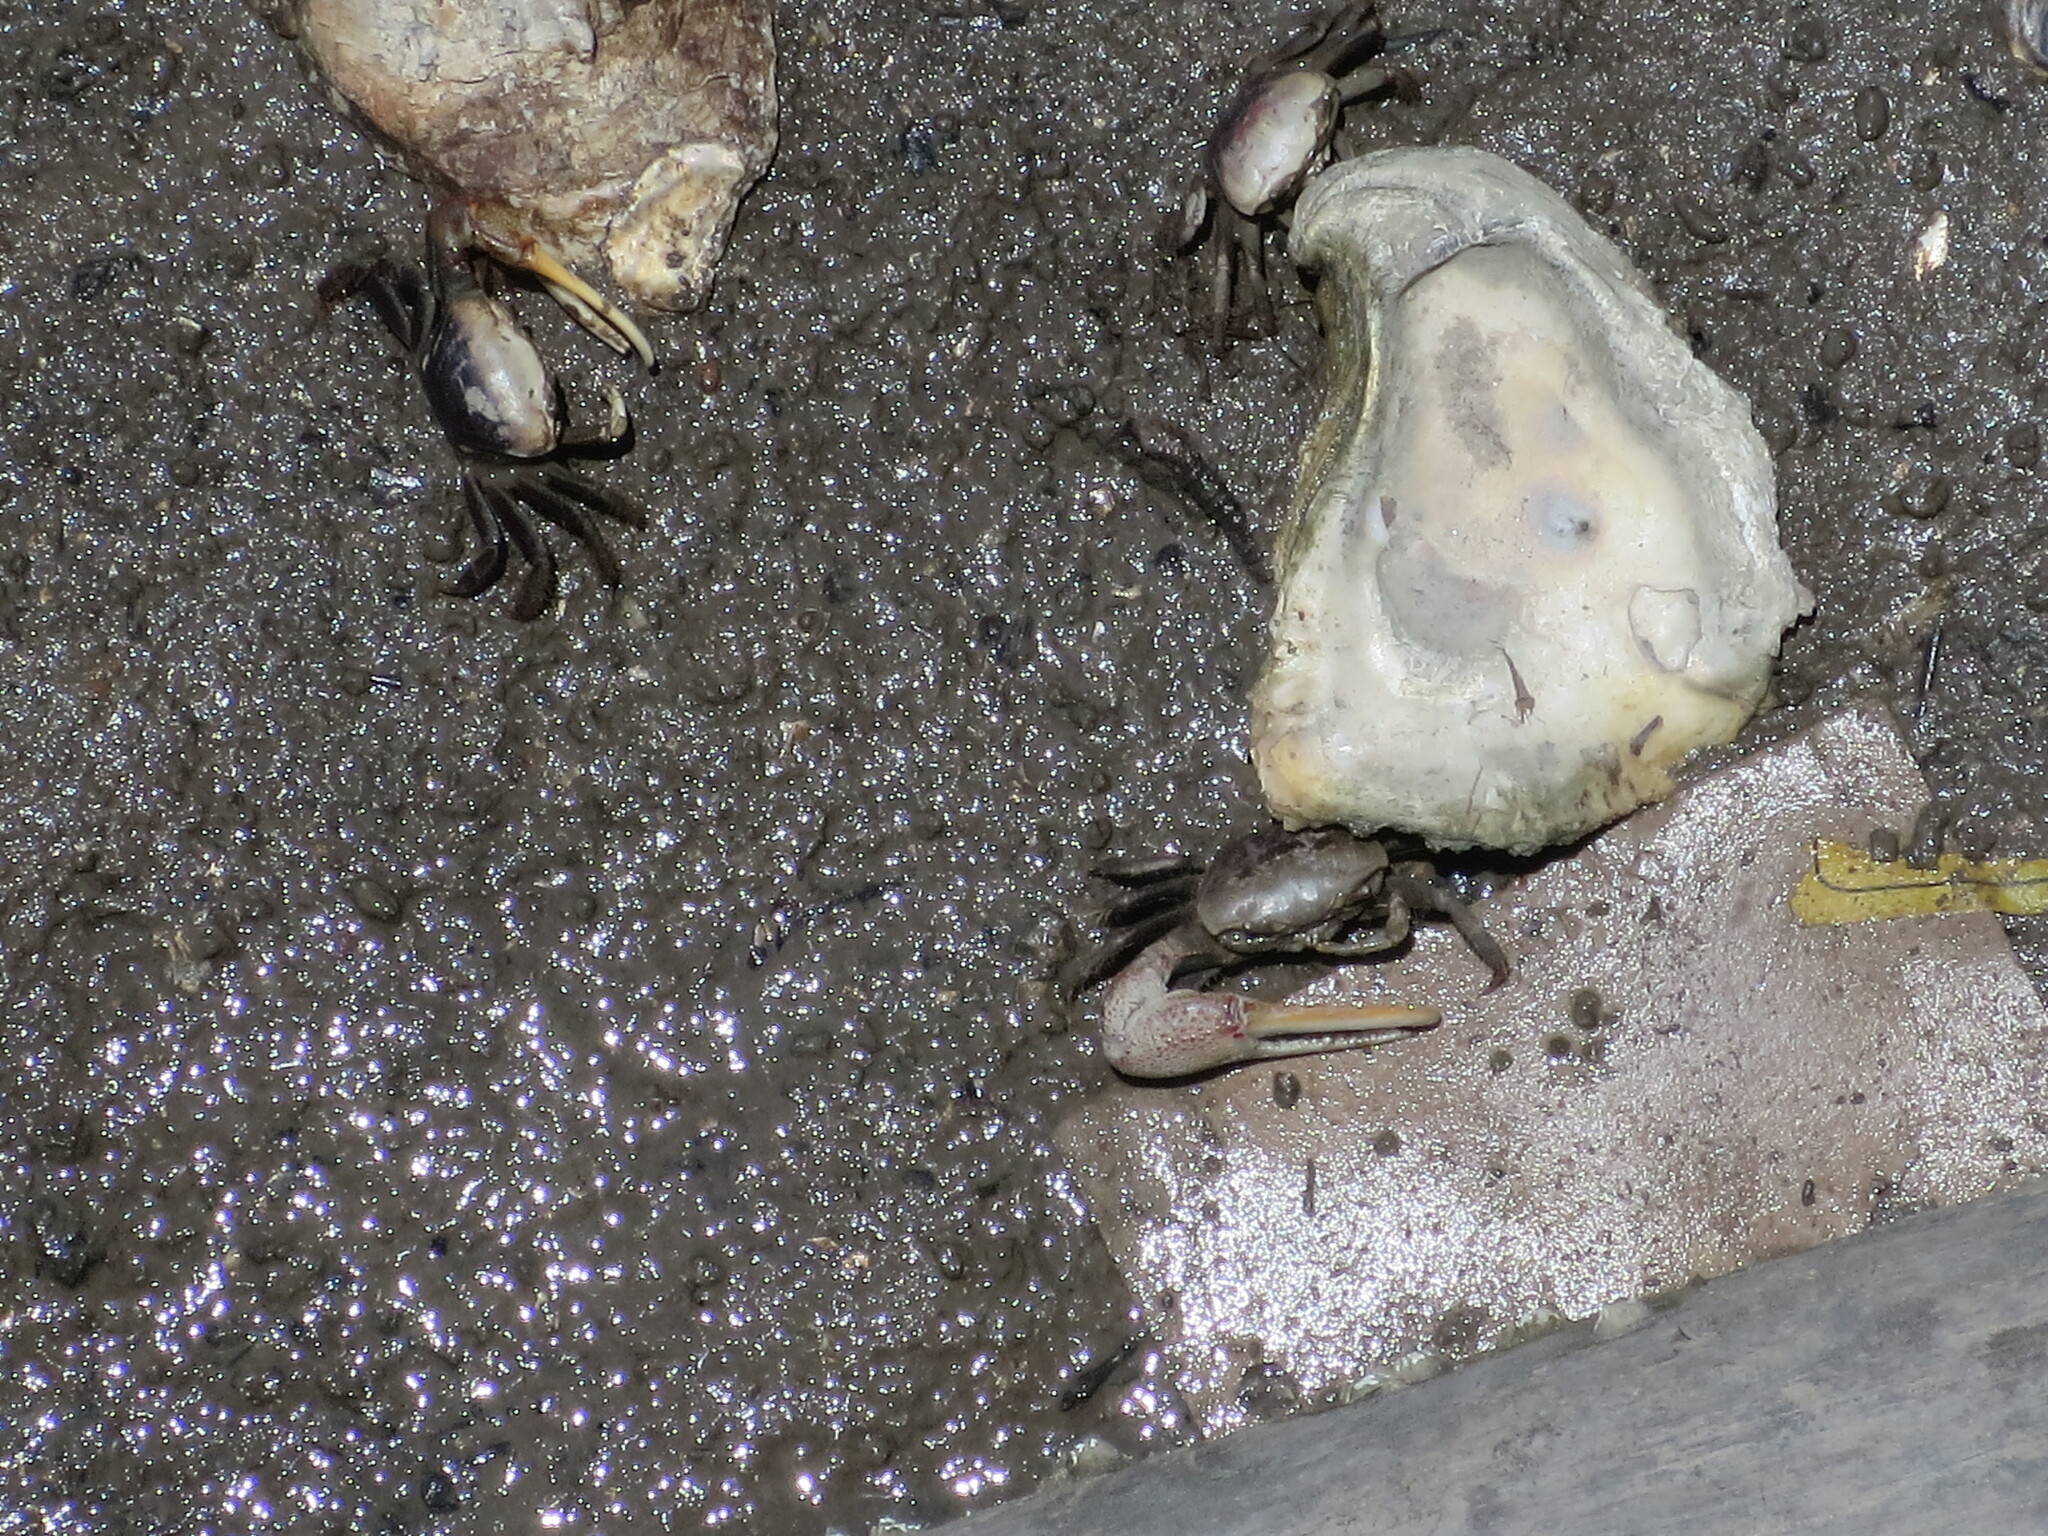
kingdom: Animalia
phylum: Arthropoda
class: Malacostraca
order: Decapoda
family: Ocypodidae
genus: Minuca
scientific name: Minuca minax
